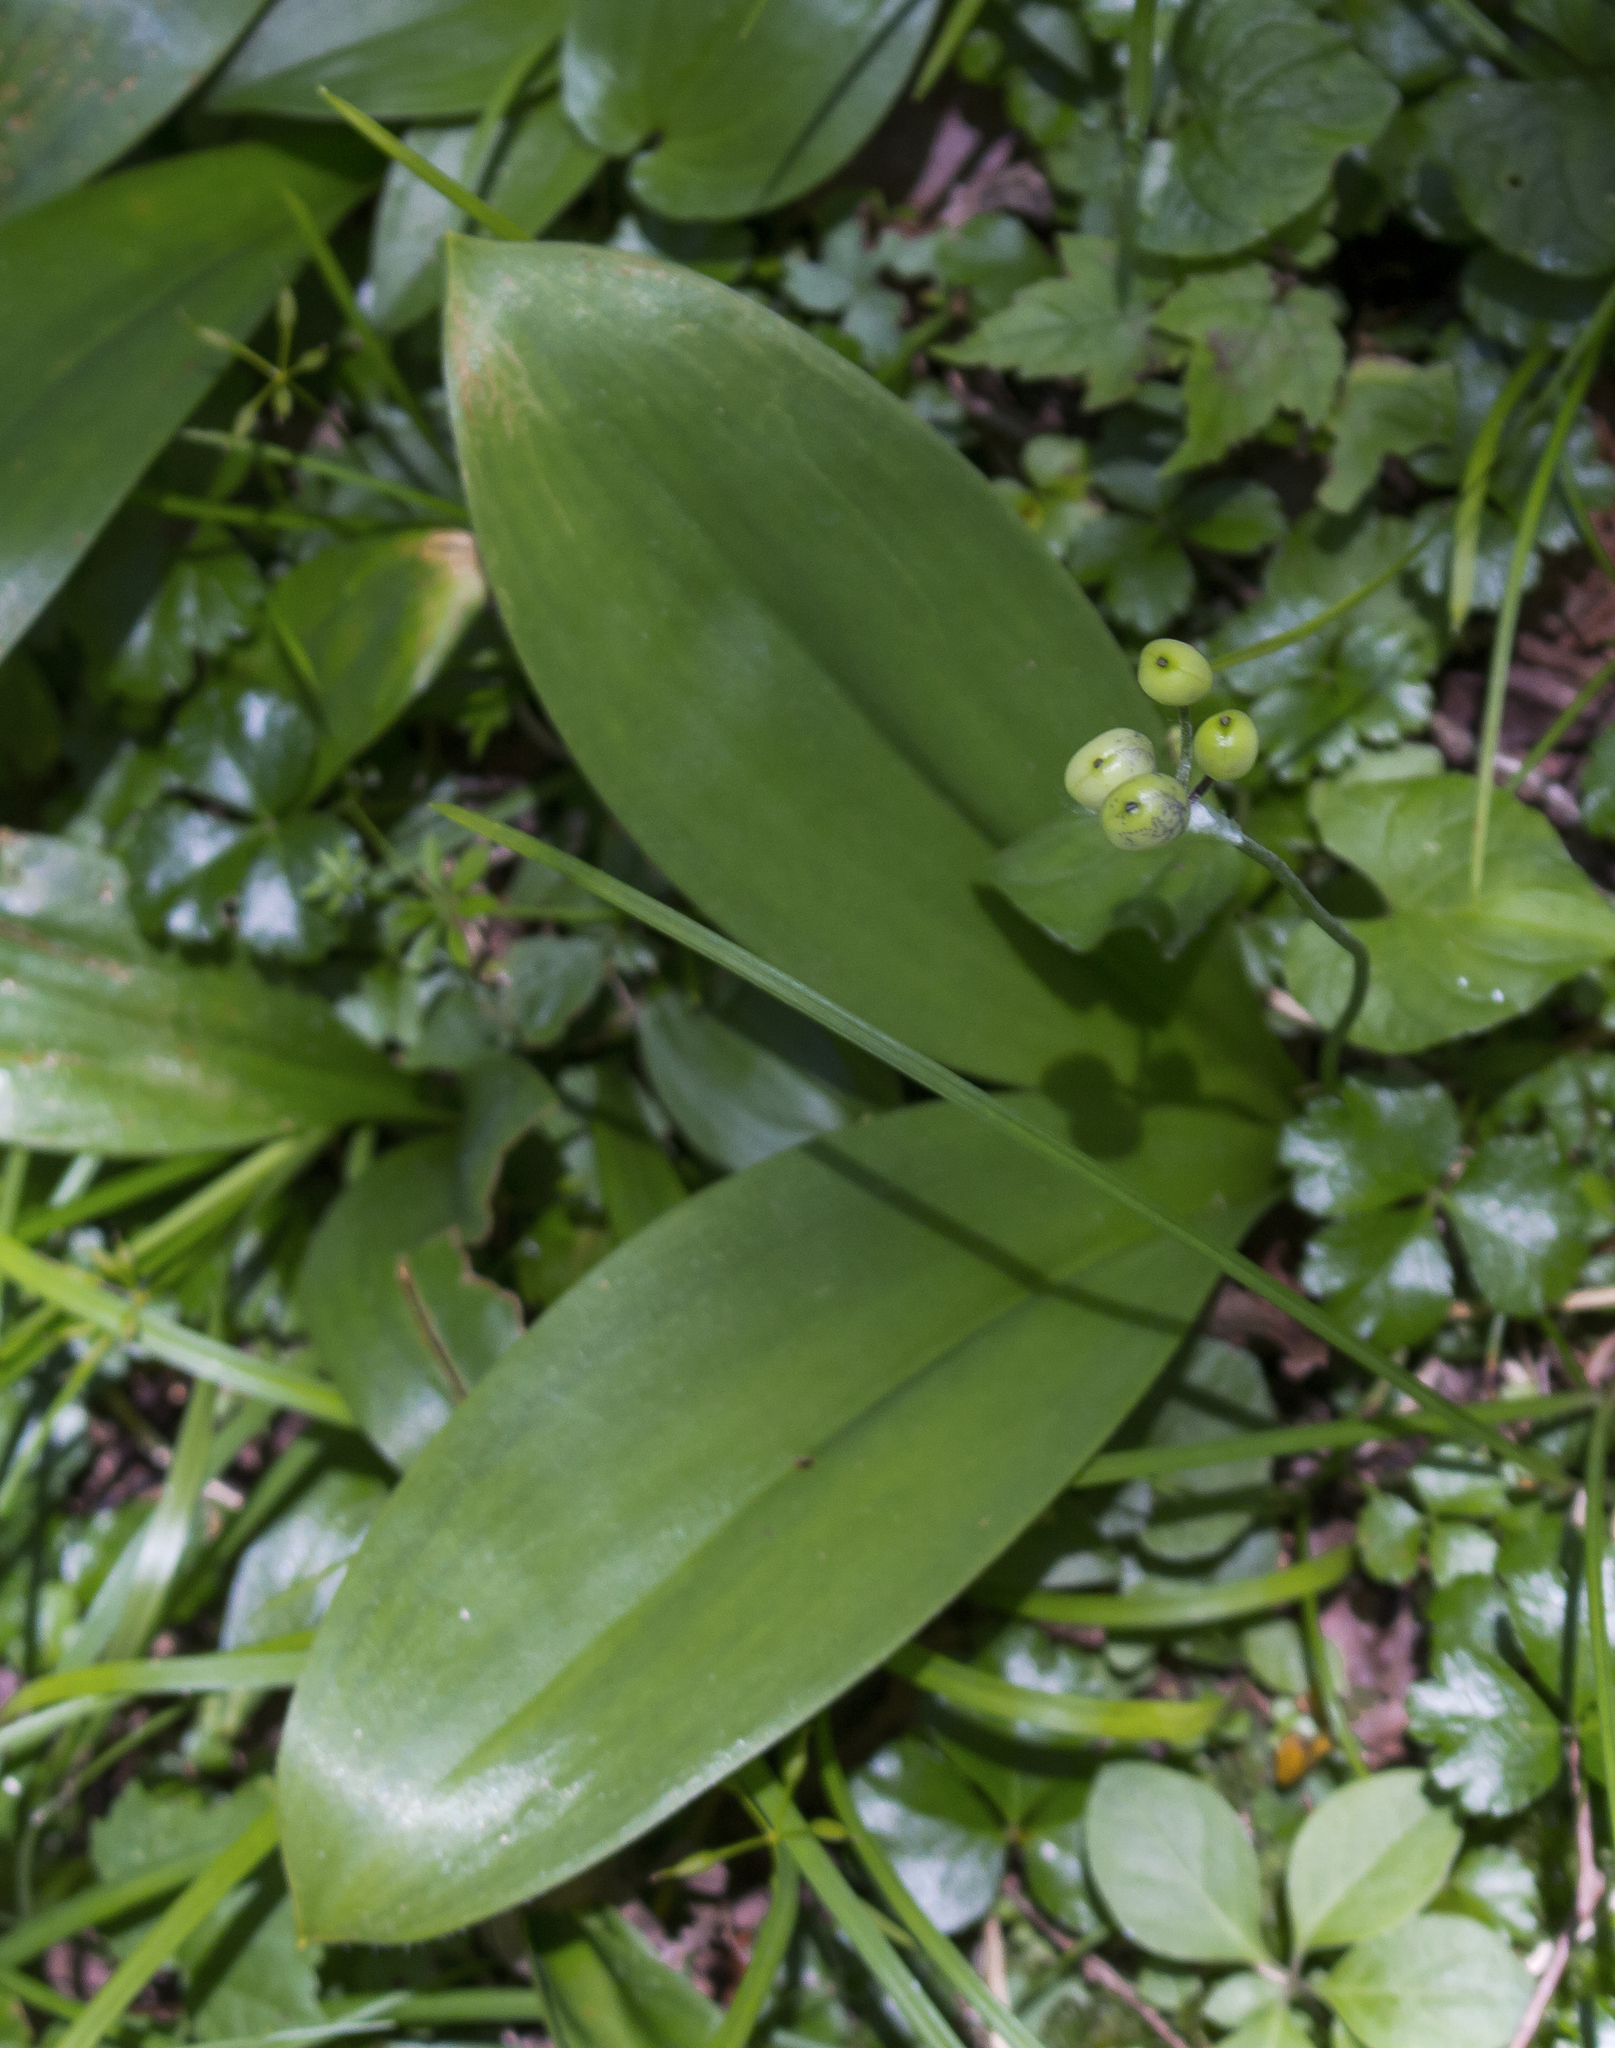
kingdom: Plantae
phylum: Tracheophyta
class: Liliopsida
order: Liliales
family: Liliaceae
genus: Clintonia
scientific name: Clintonia borealis
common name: Yellow clintonia
